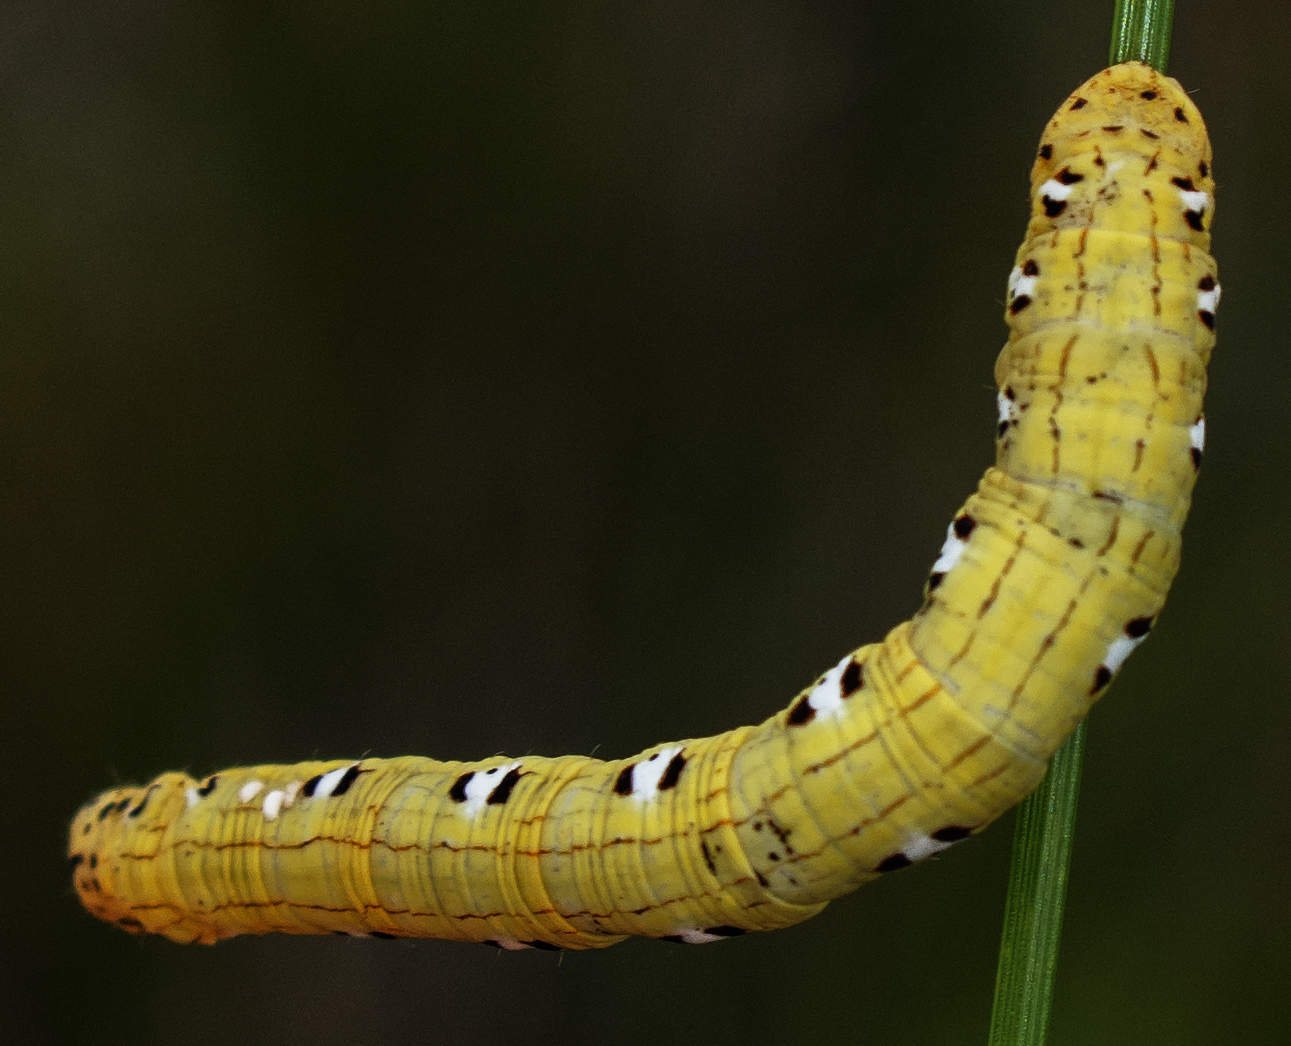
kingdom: Animalia
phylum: Arthropoda
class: Insecta
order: Lepidoptera
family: Geometridae
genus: Cingilia
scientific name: Cingilia catenaria
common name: Chain-dotted geometer
